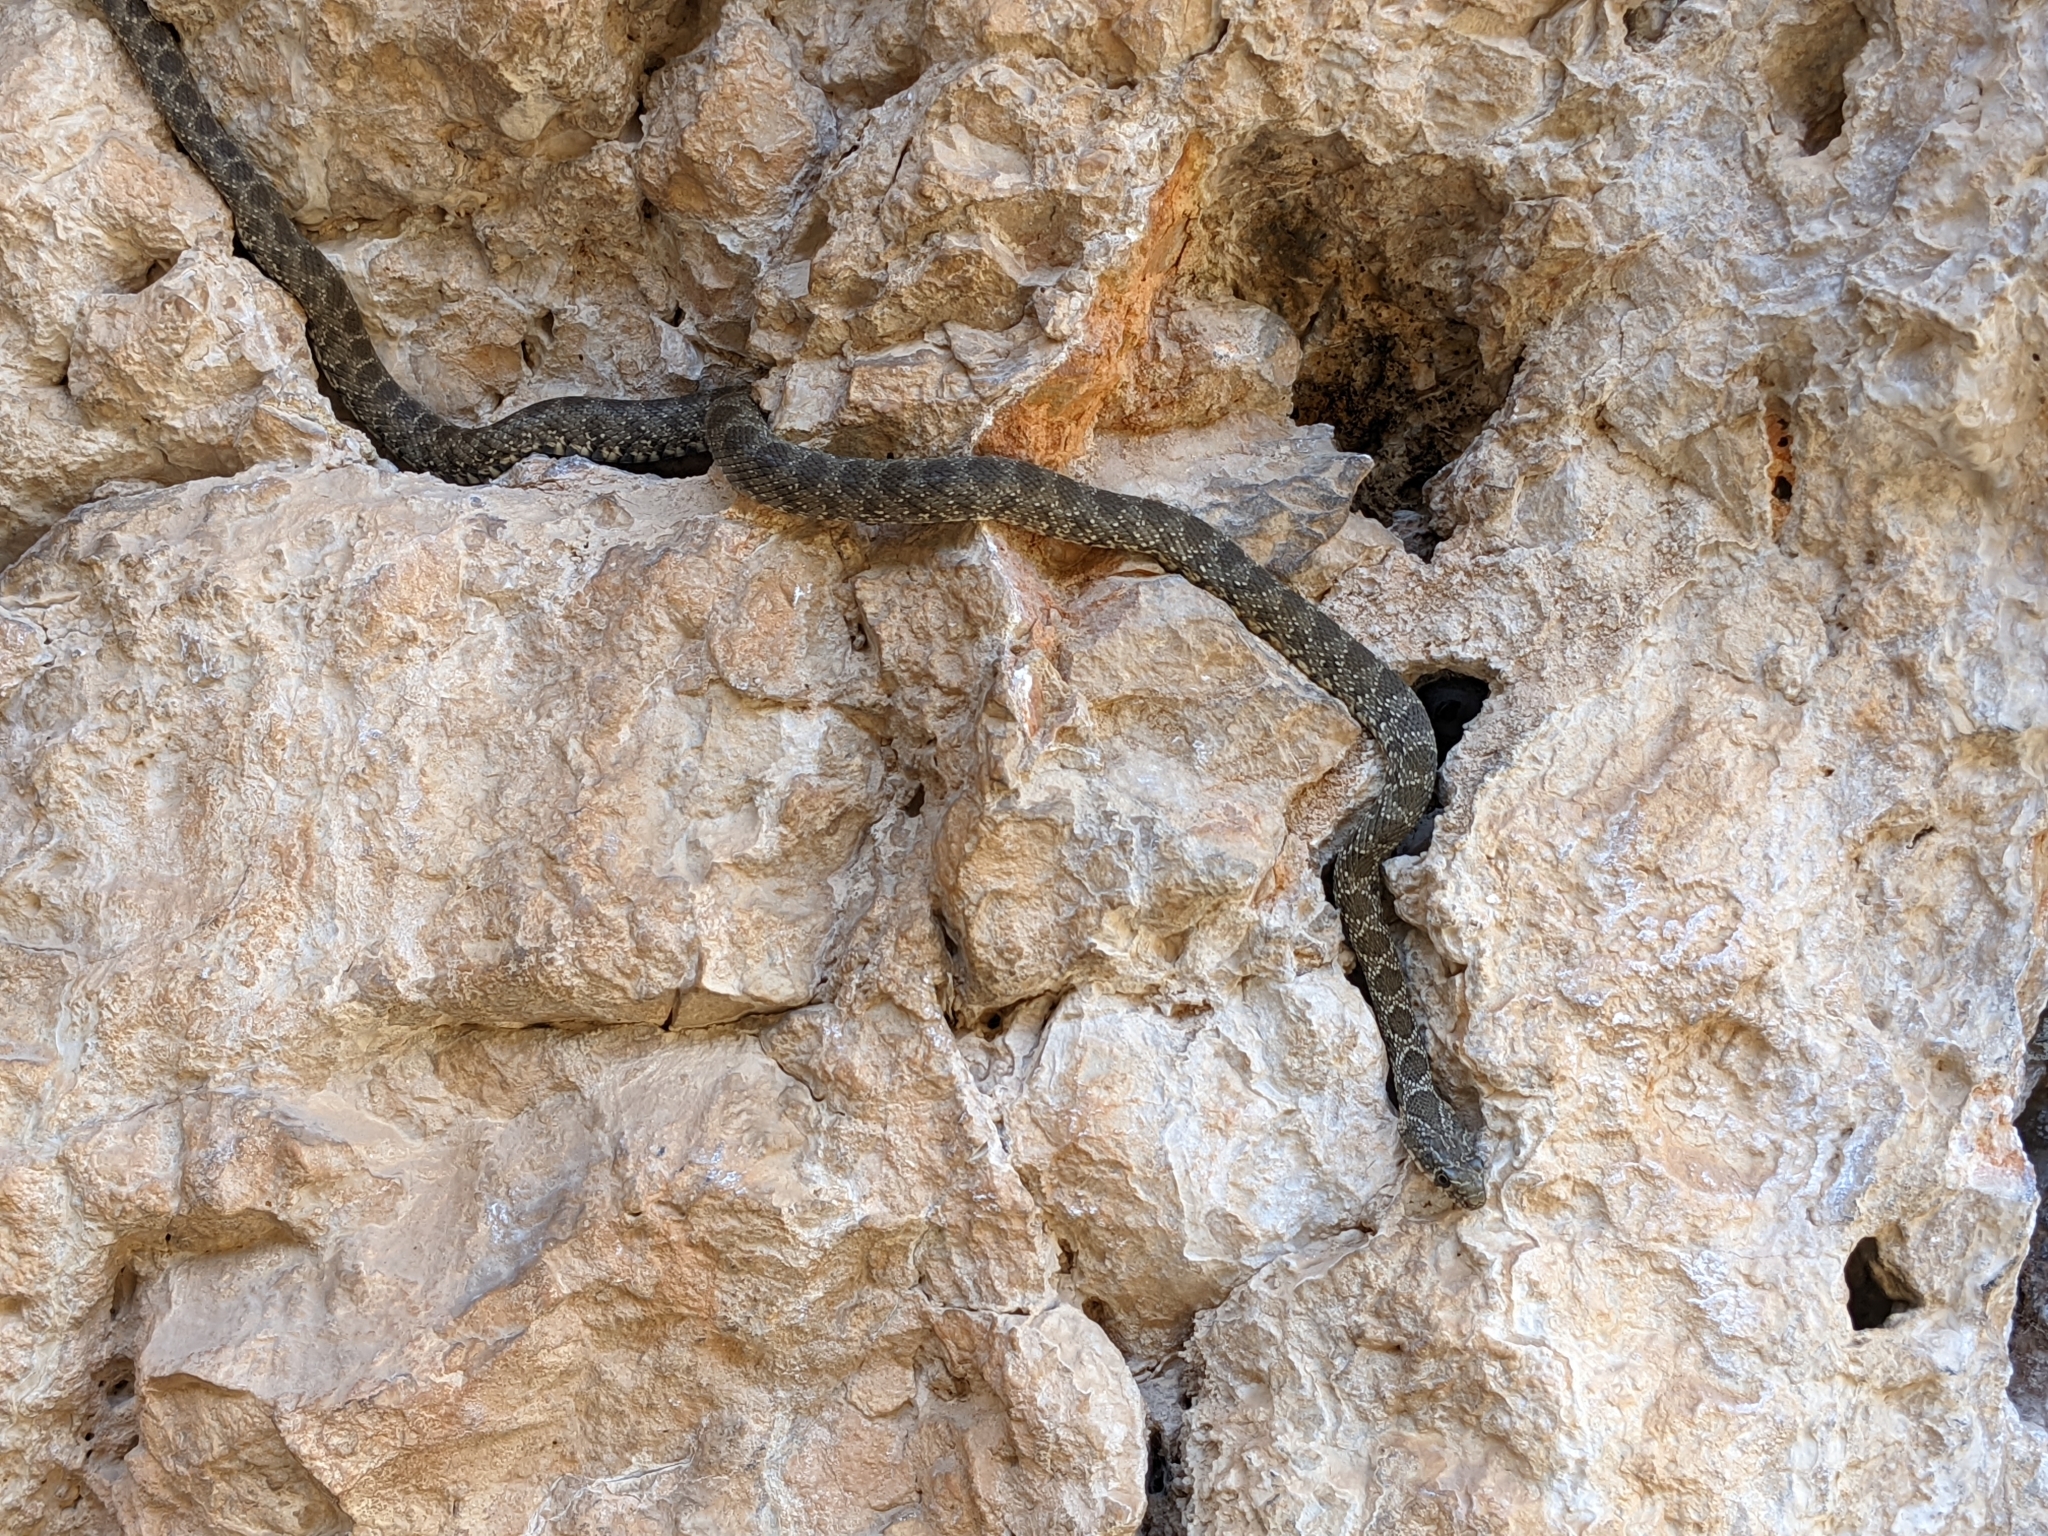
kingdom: Animalia
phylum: Chordata
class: Squamata
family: Colubridae
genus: Hemorrhois
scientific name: Hemorrhois hippocrepis
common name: Horseshoe whip snake
